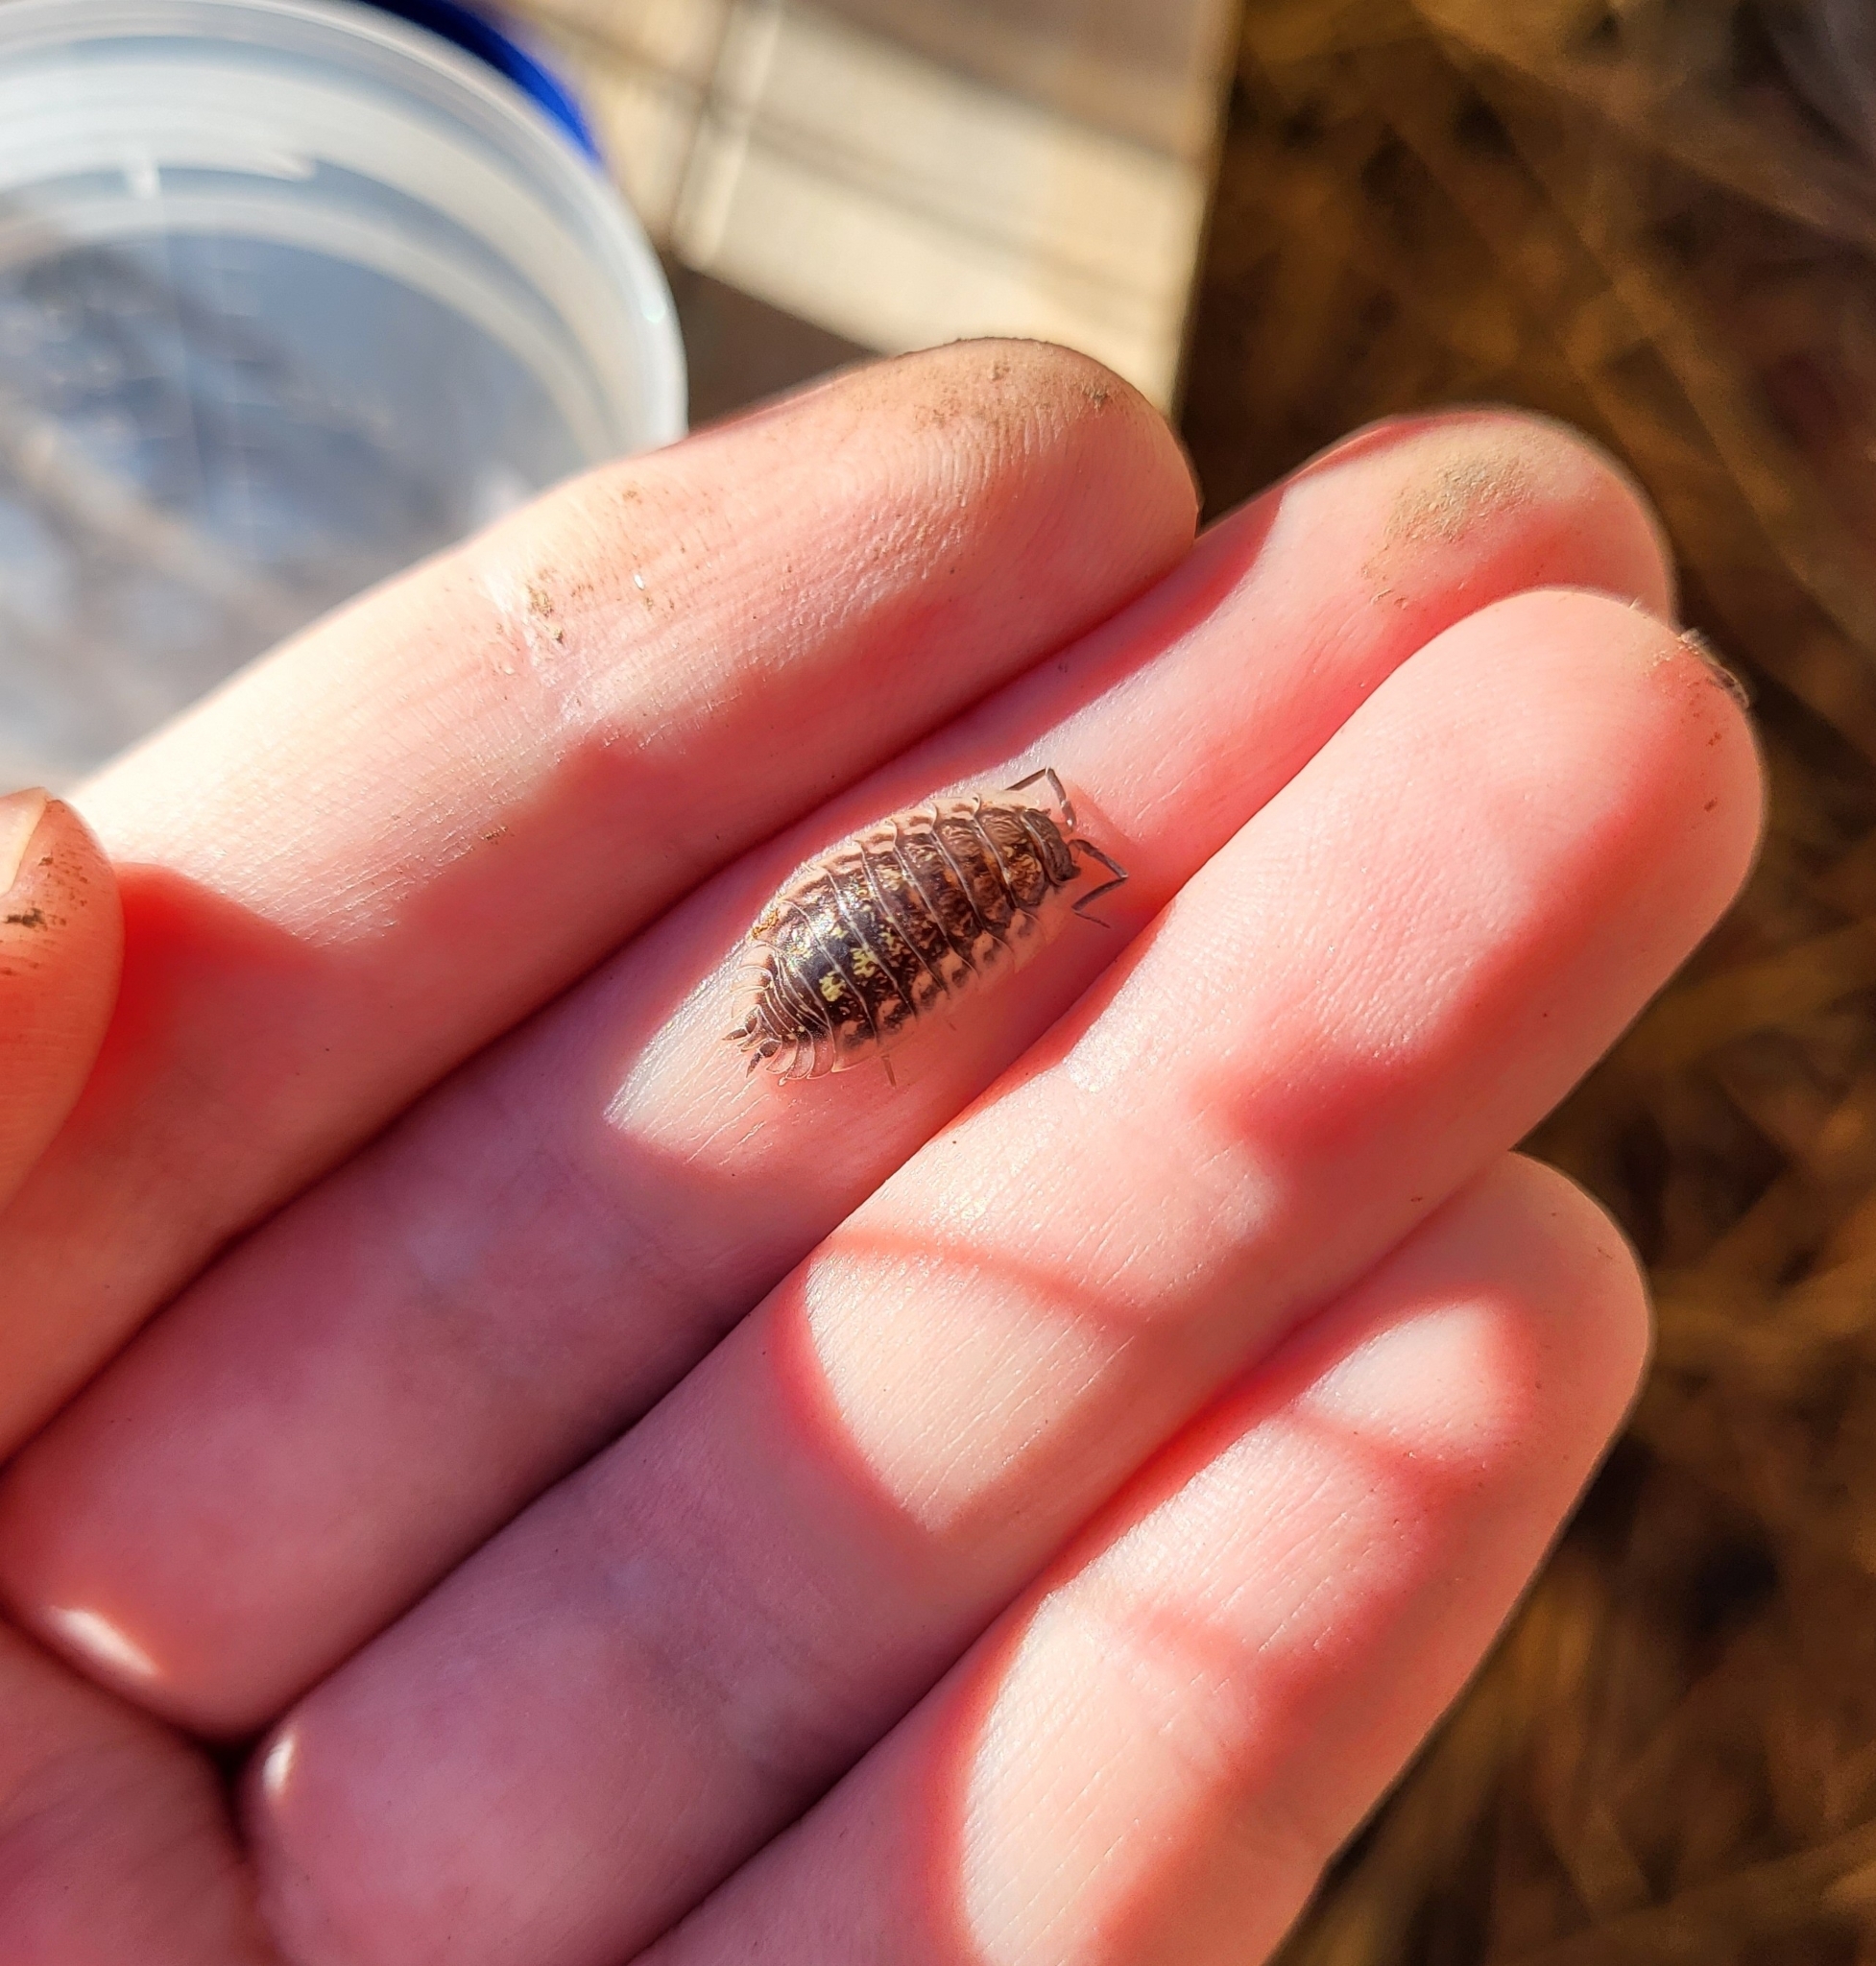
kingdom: Animalia
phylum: Arthropoda
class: Malacostraca
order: Isopoda
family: Oniscidae
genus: Oniscus
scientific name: Oniscus asellus
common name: Common shiny woodlouse
